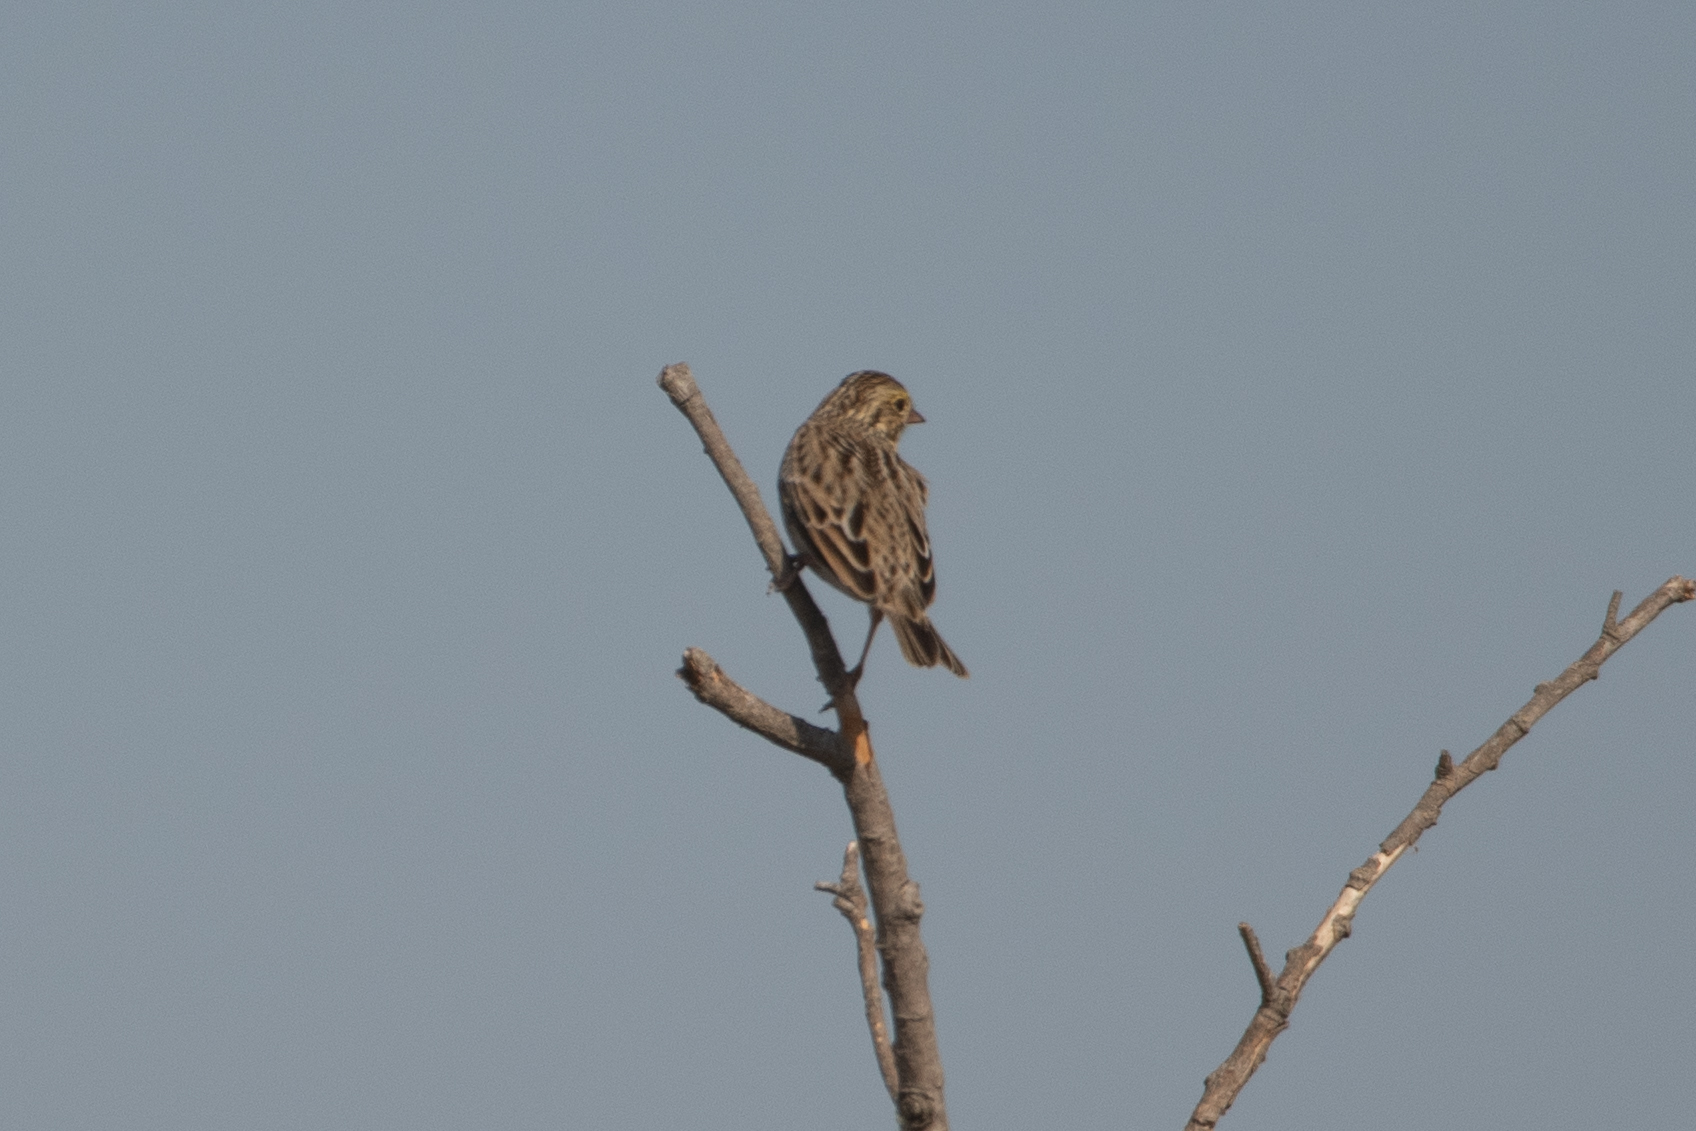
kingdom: Animalia
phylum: Chordata
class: Aves
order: Passeriformes
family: Passerellidae
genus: Passerculus
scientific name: Passerculus sandwichensis
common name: Savannah sparrow
